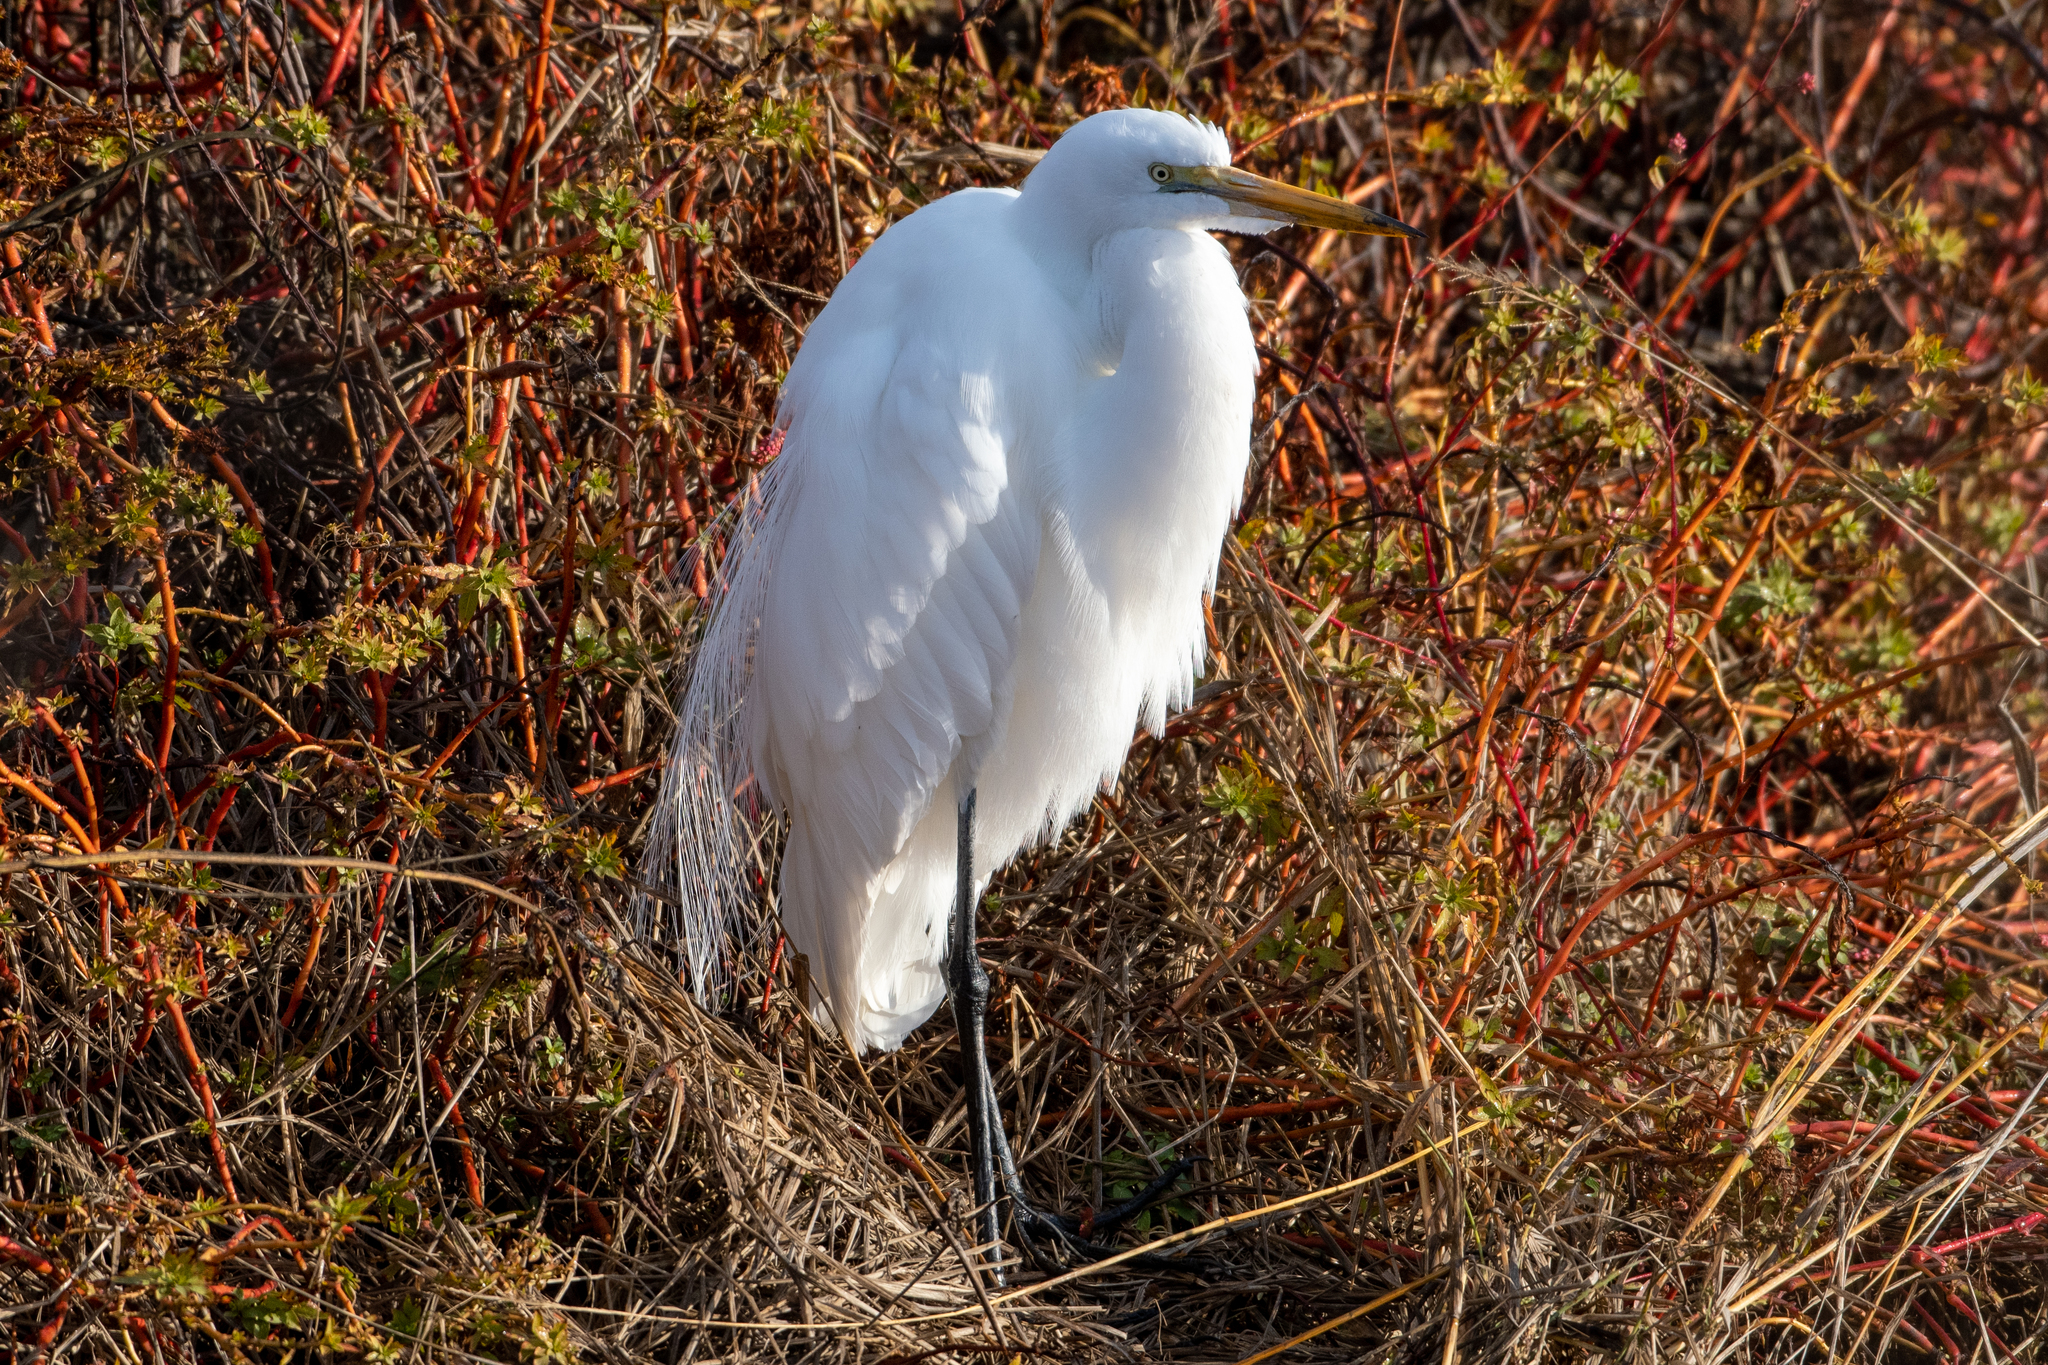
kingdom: Animalia
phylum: Chordata
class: Aves
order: Pelecaniformes
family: Ardeidae
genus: Ardea
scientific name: Ardea alba
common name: Great egret
